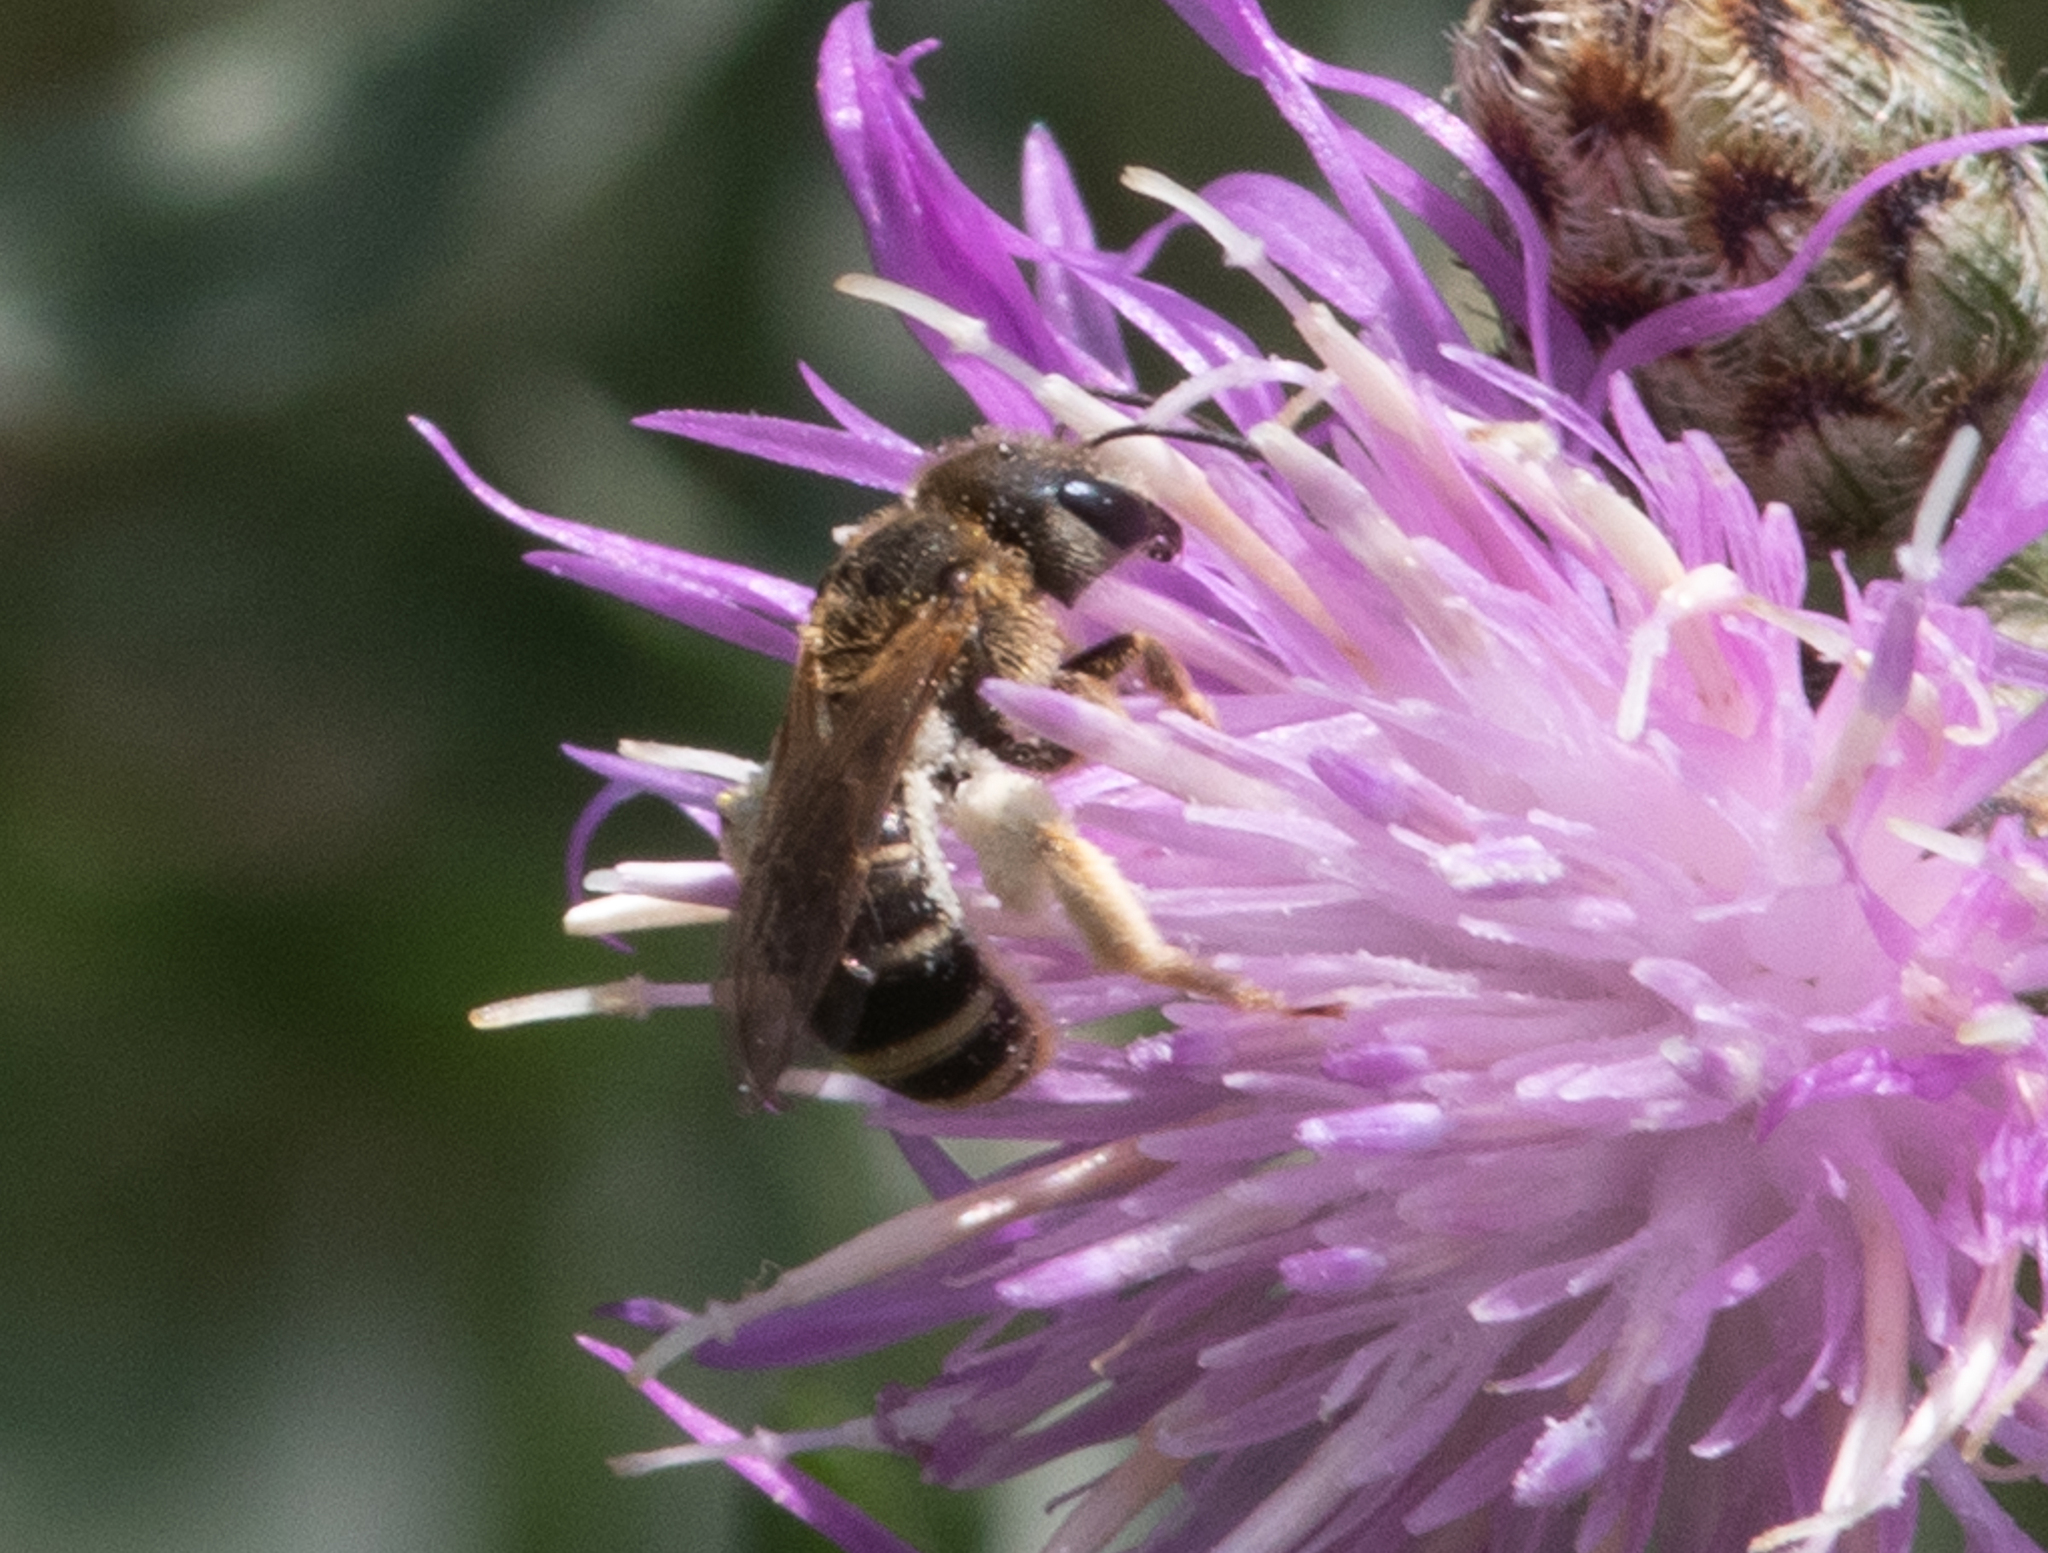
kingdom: Animalia
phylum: Arthropoda
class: Insecta
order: Hymenoptera
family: Halictidae
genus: Halictus
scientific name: Halictus ligatus
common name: Ligated furrow bee
